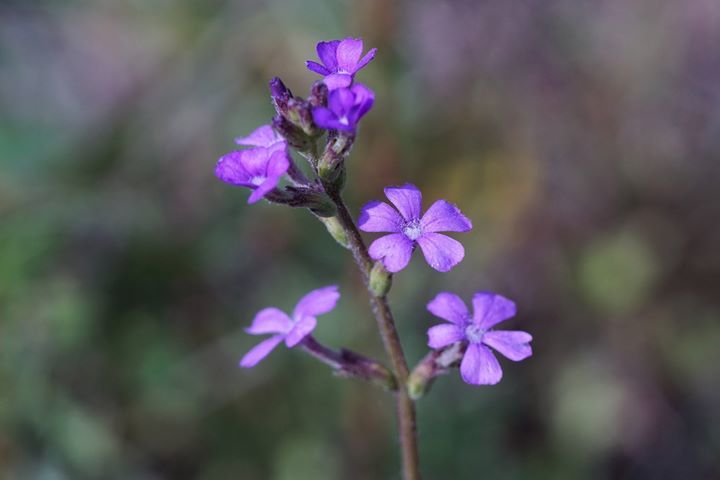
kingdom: Plantae
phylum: Tracheophyta
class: Magnoliopsida
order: Lamiales
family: Orobanchaceae
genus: Buchnera
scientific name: Buchnera floridana
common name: Florida bluehearts
